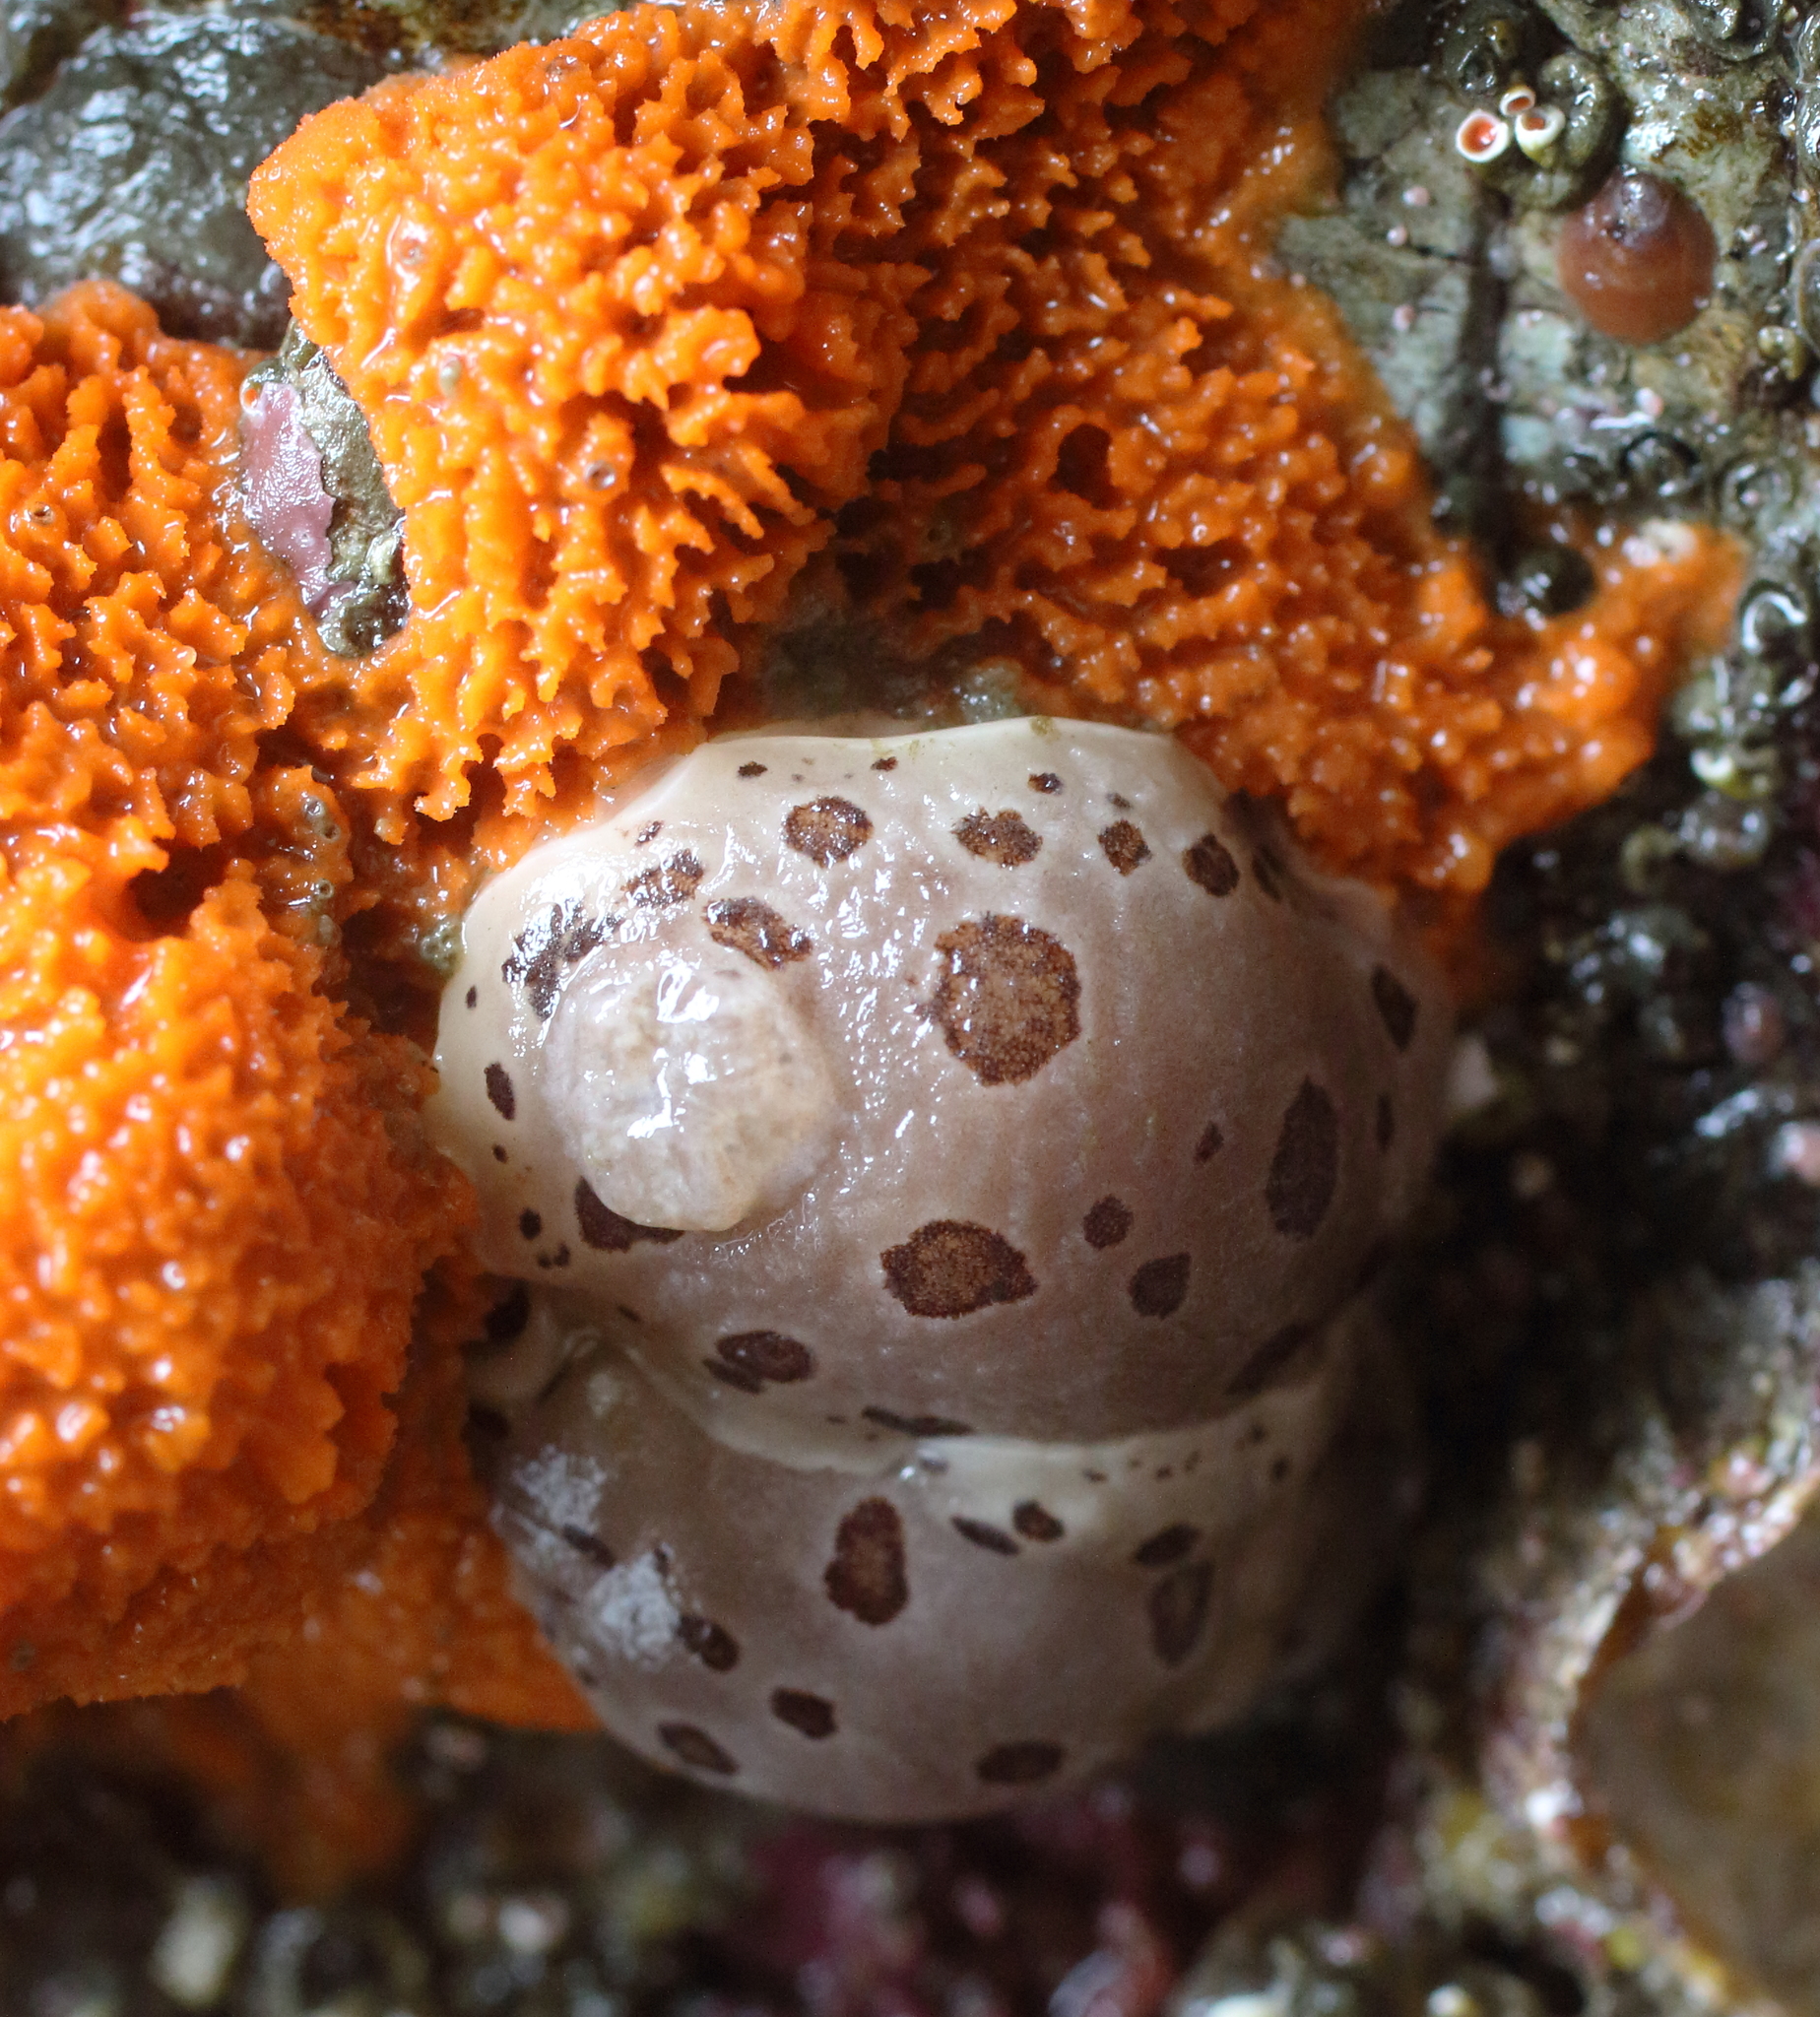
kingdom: Animalia
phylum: Mollusca
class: Gastropoda
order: Nudibranchia
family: Discodorididae
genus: Diaulula
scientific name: Diaulula odonoghuei
